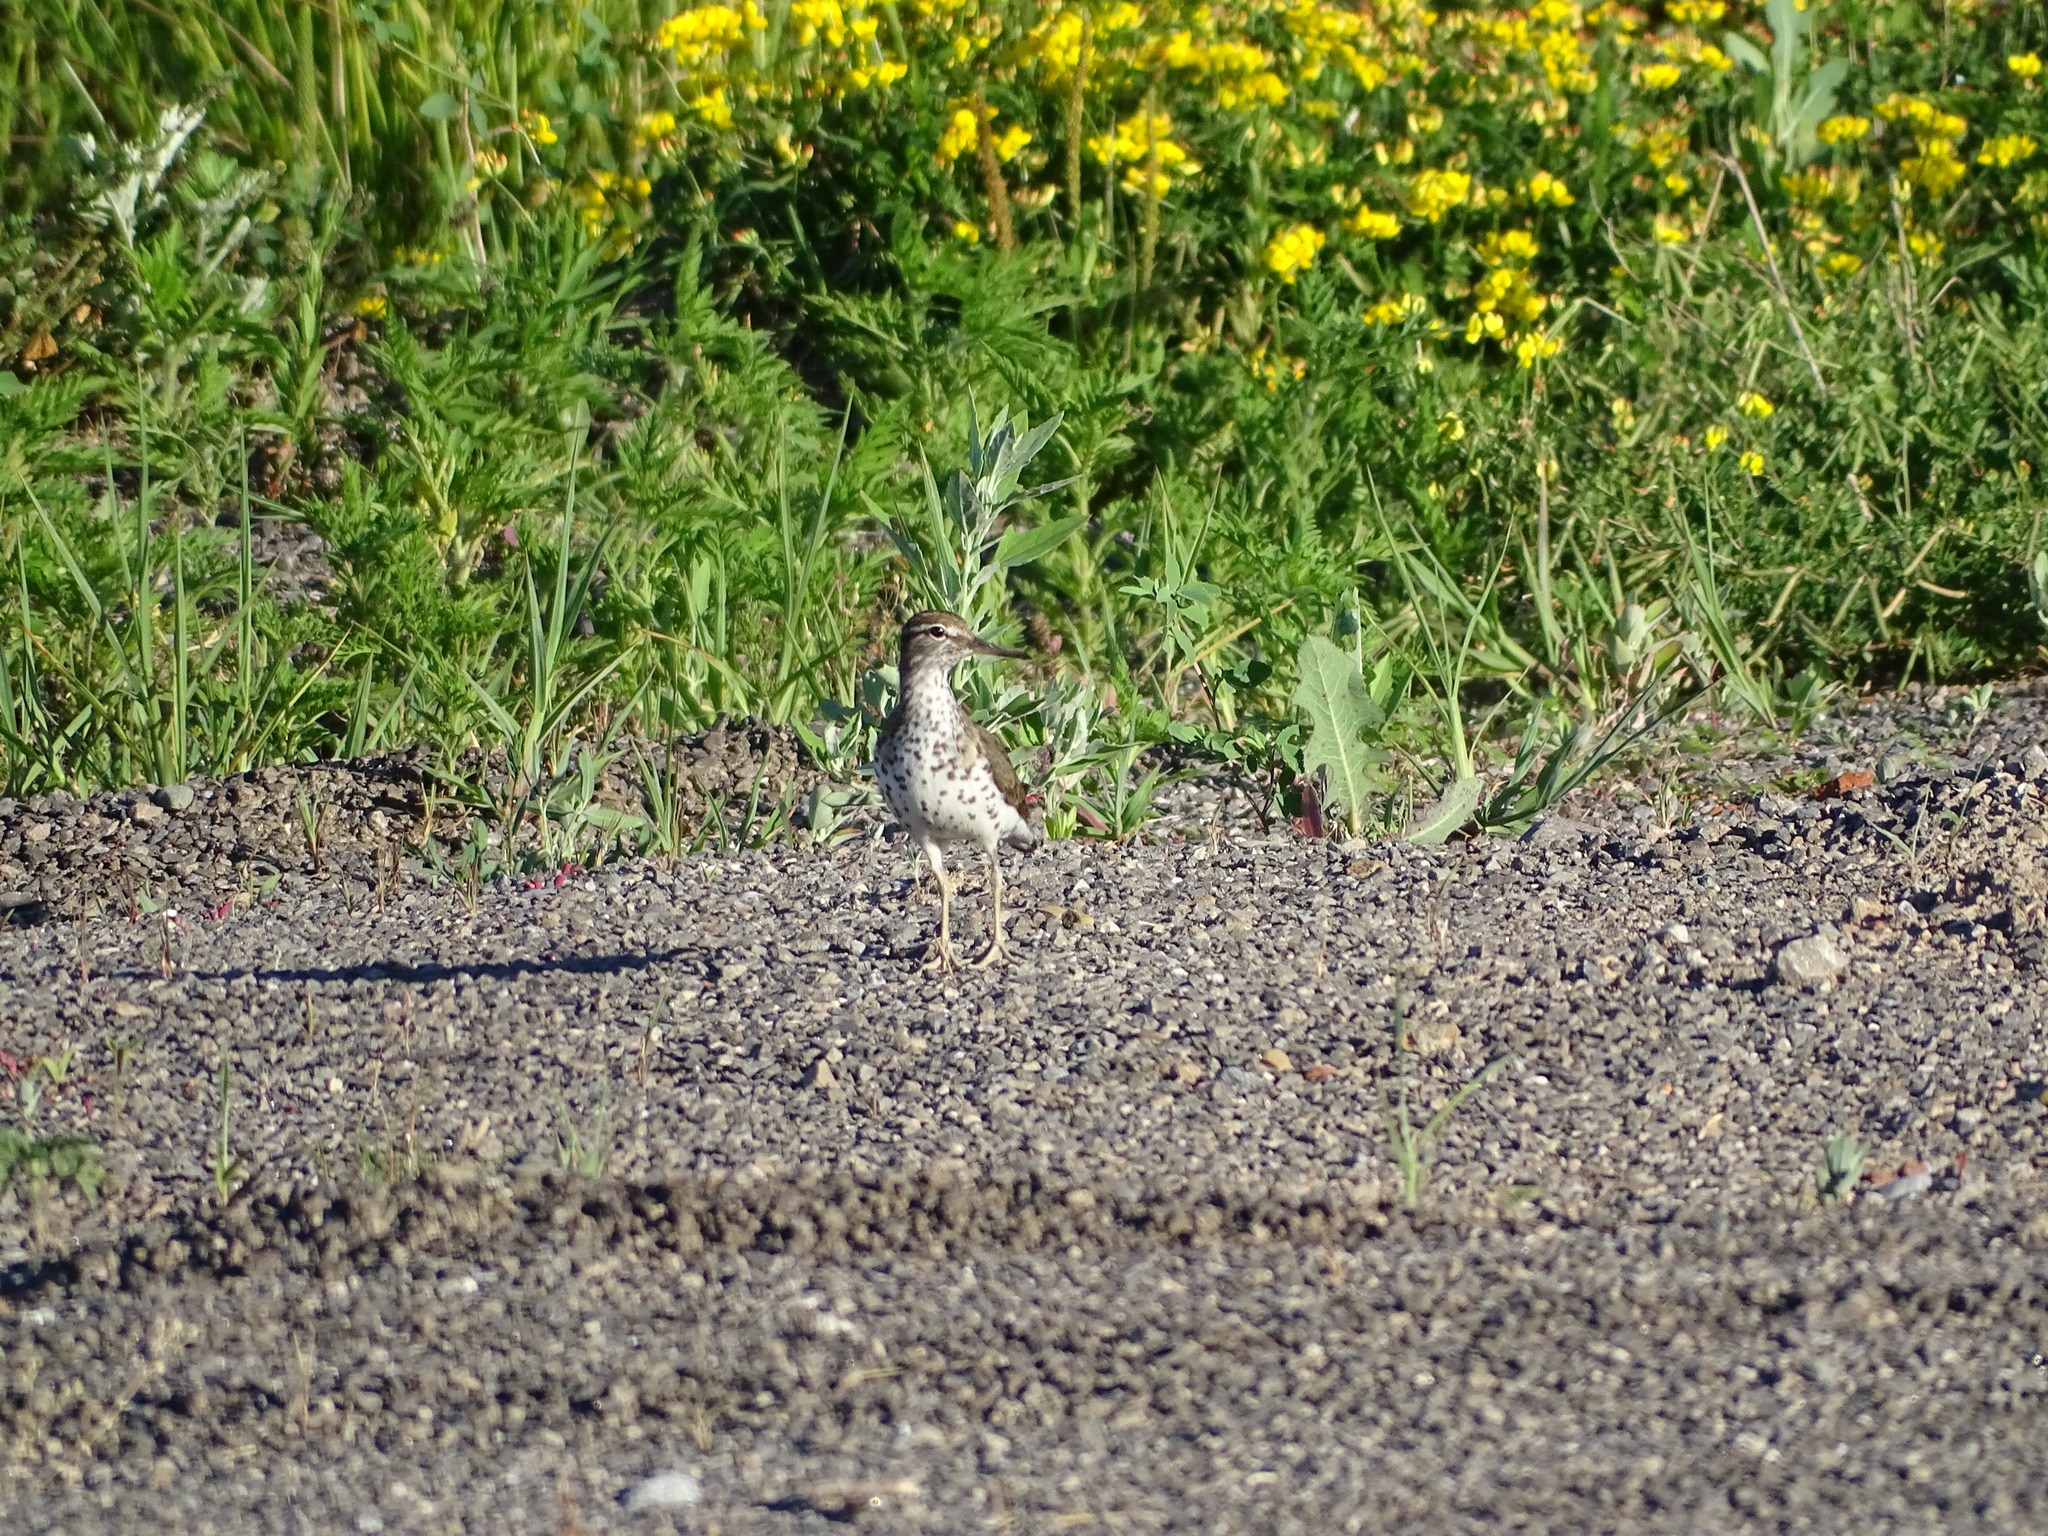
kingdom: Animalia
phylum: Chordata
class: Aves
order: Charadriiformes
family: Scolopacidae
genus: Actitis
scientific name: Actitis macularius
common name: Spotted sandpiper
